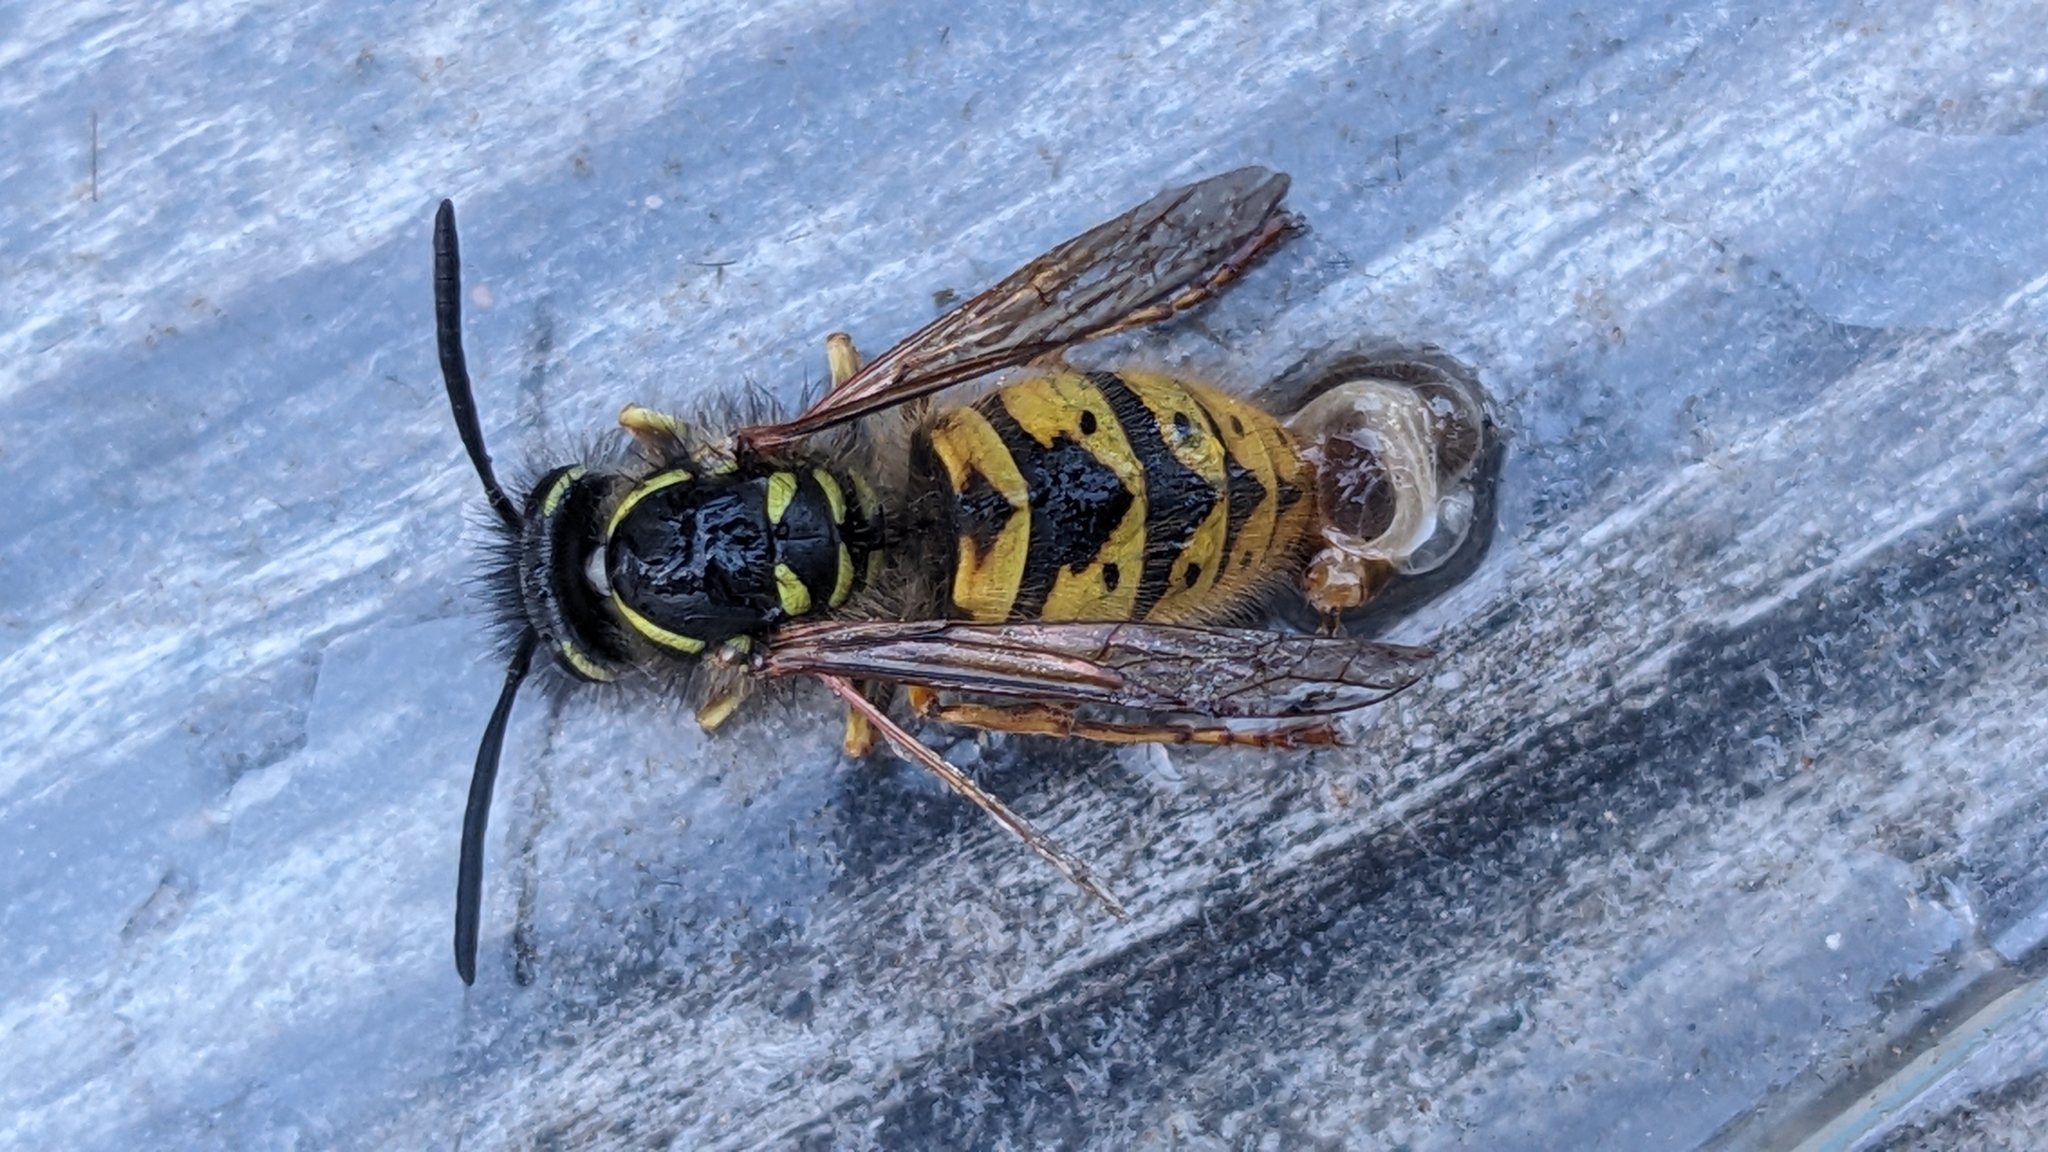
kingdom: Animalia
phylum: Arthropoda
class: Insecta
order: Hymenoptera
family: Vespidae
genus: Vespula
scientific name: Vespula vulgaris
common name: Common wasp
